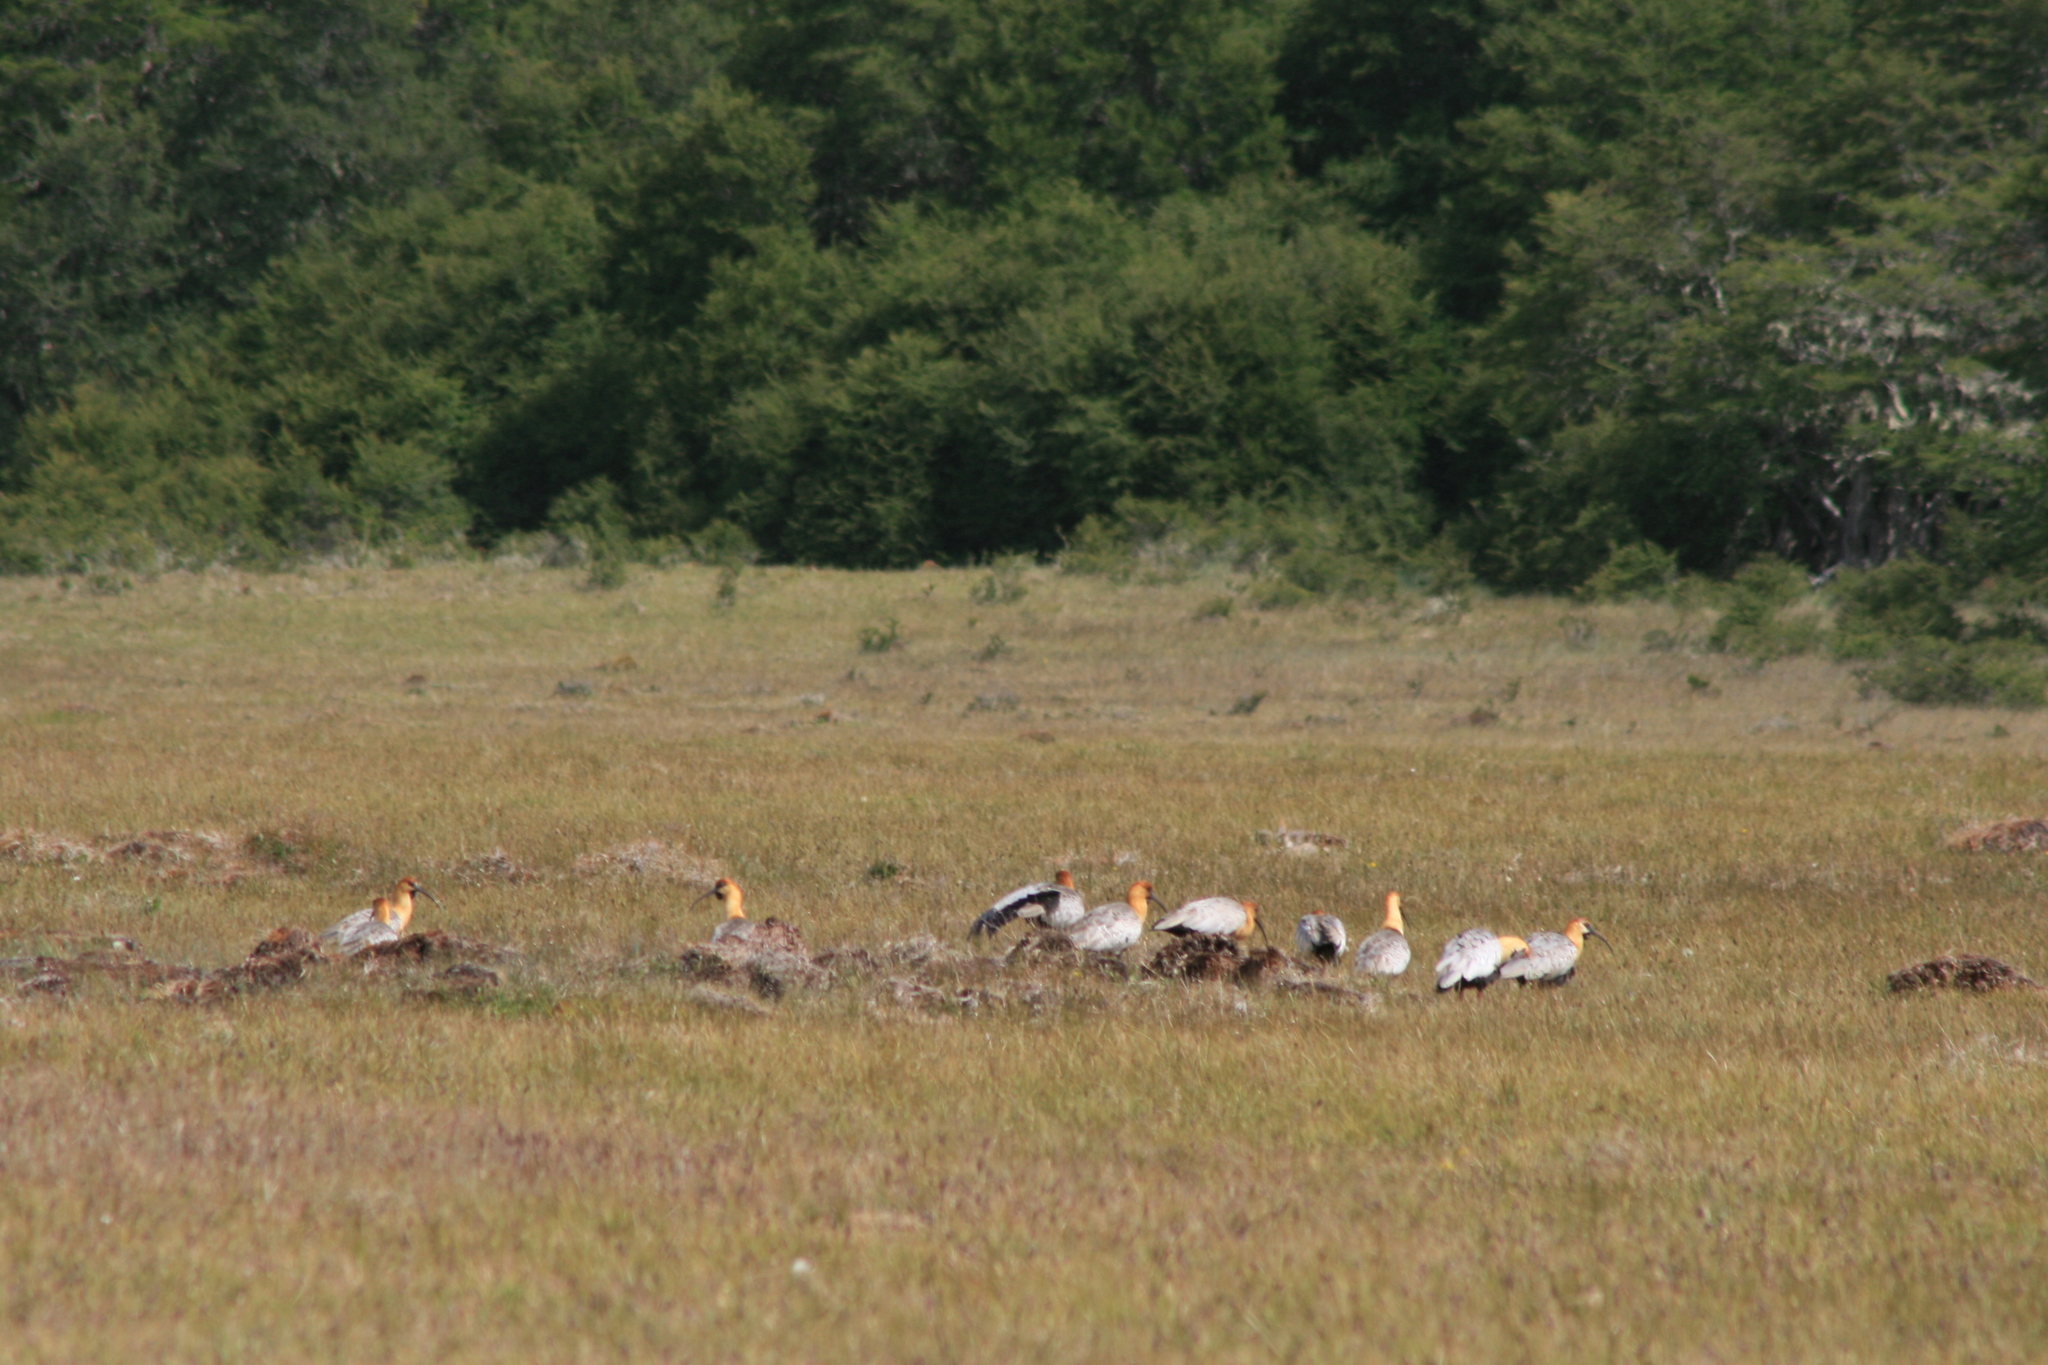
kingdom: Animalia
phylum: Chordata
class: Aves
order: Pelecaniformes
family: Threskiornithidae
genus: Theristicus
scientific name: Theristicus melanopis
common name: Black-faced ibis
